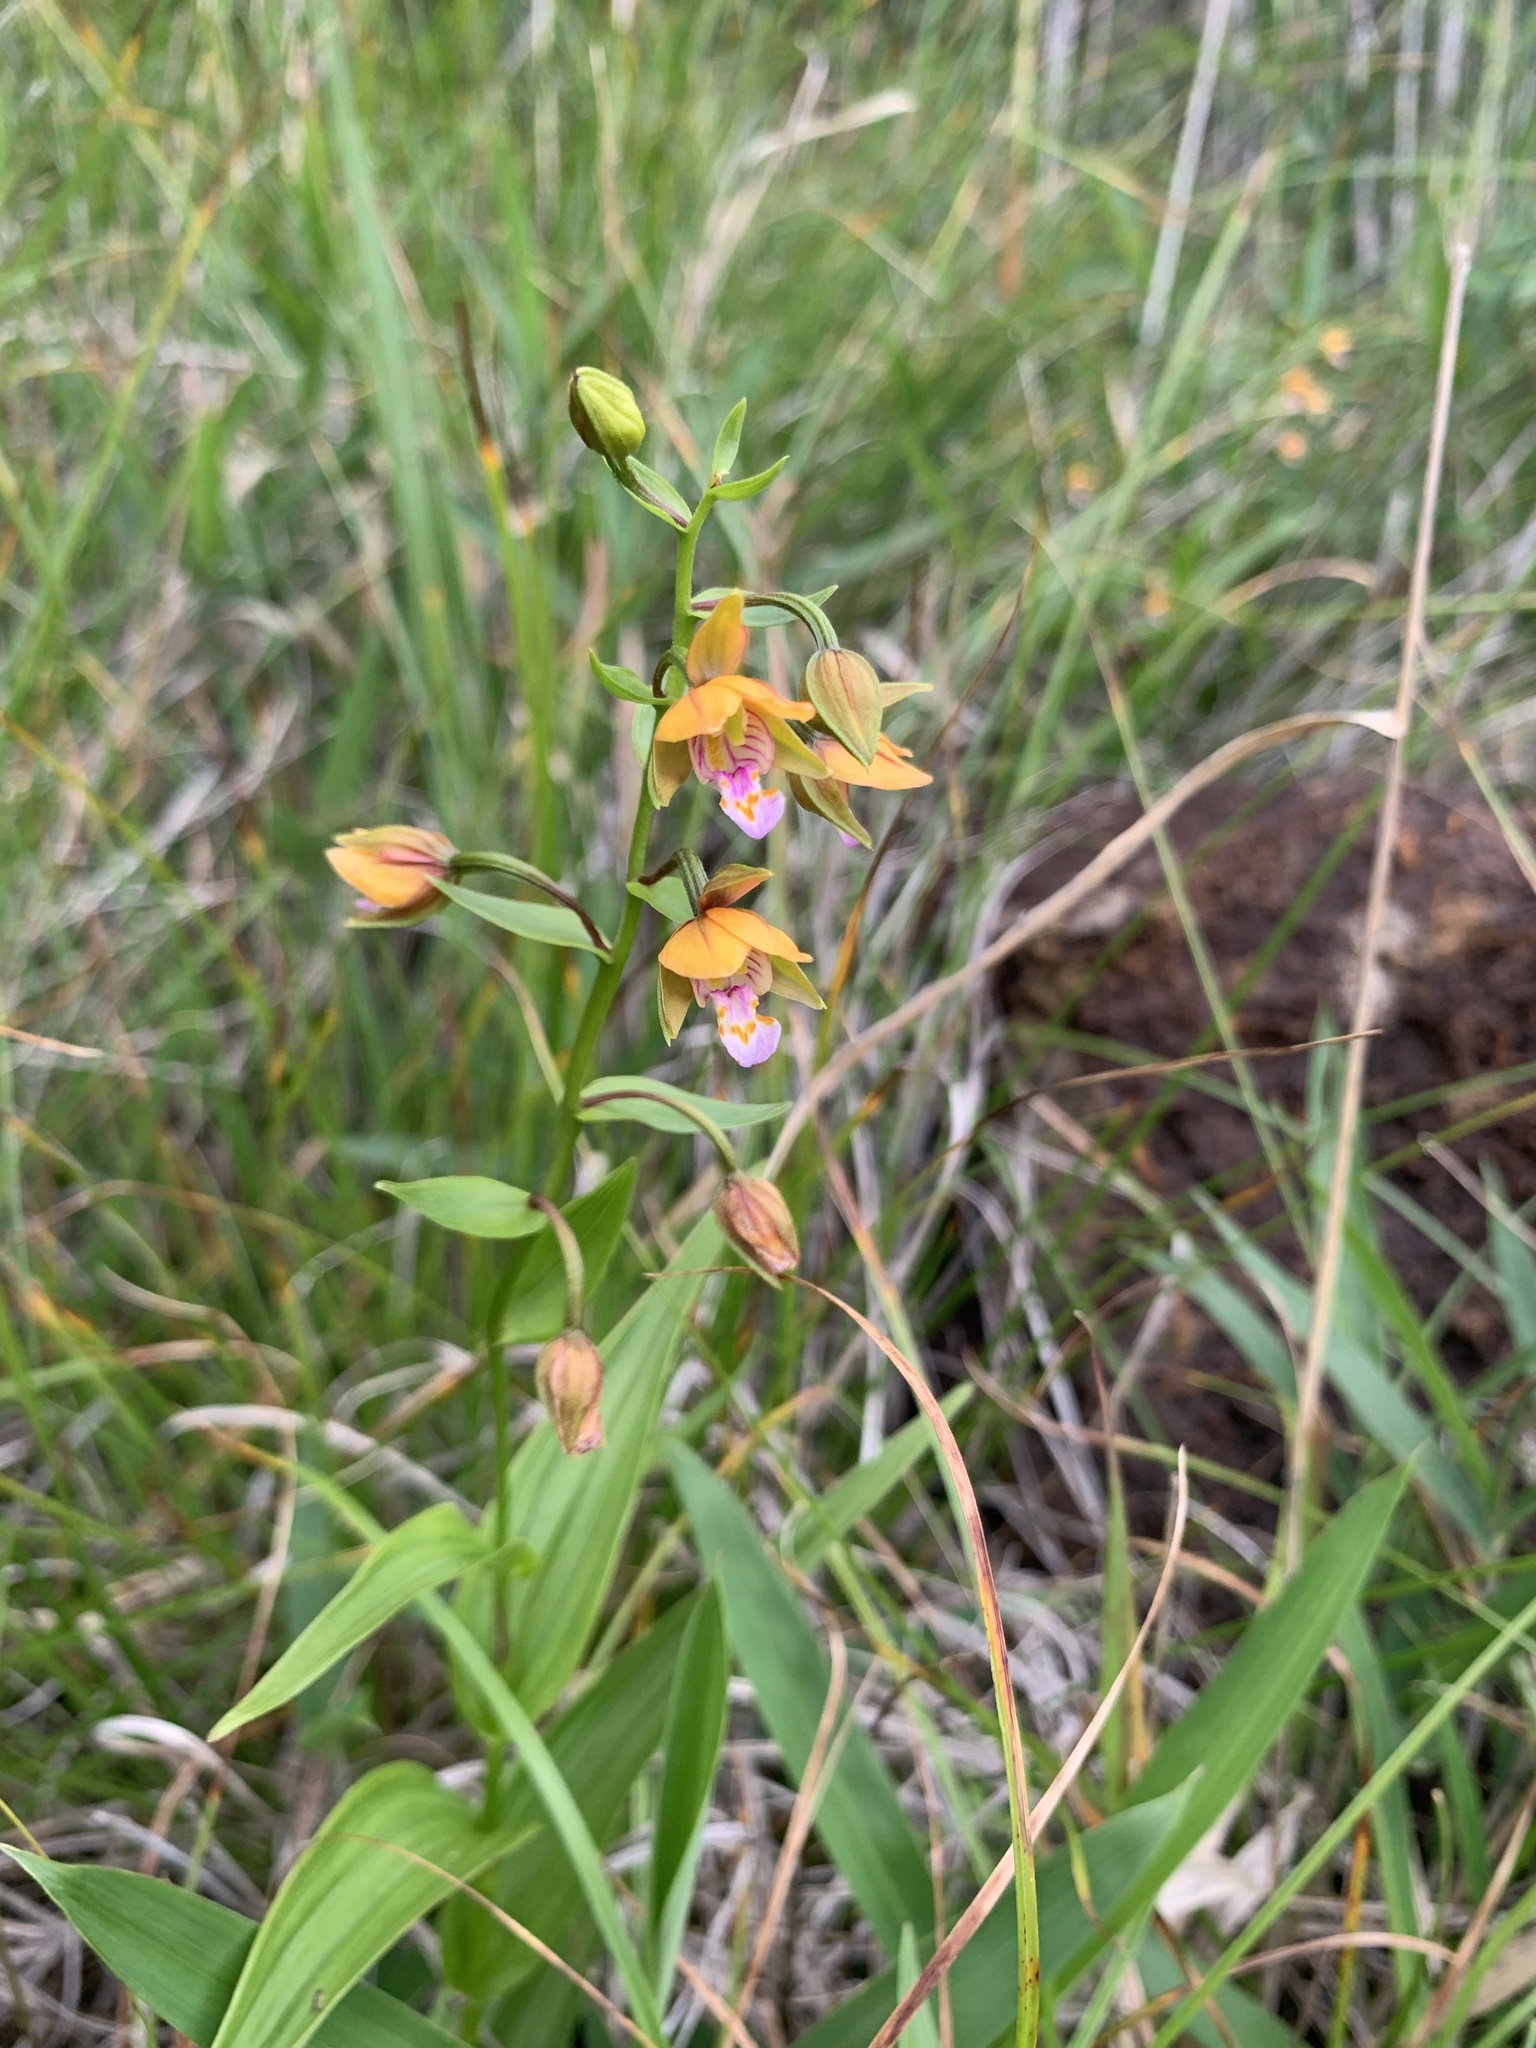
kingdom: Plantae
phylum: Tracheophyta
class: Liliopsida
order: Asparagales
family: Orchidaceae
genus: Epipactis
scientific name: Epipactis thunbergii
